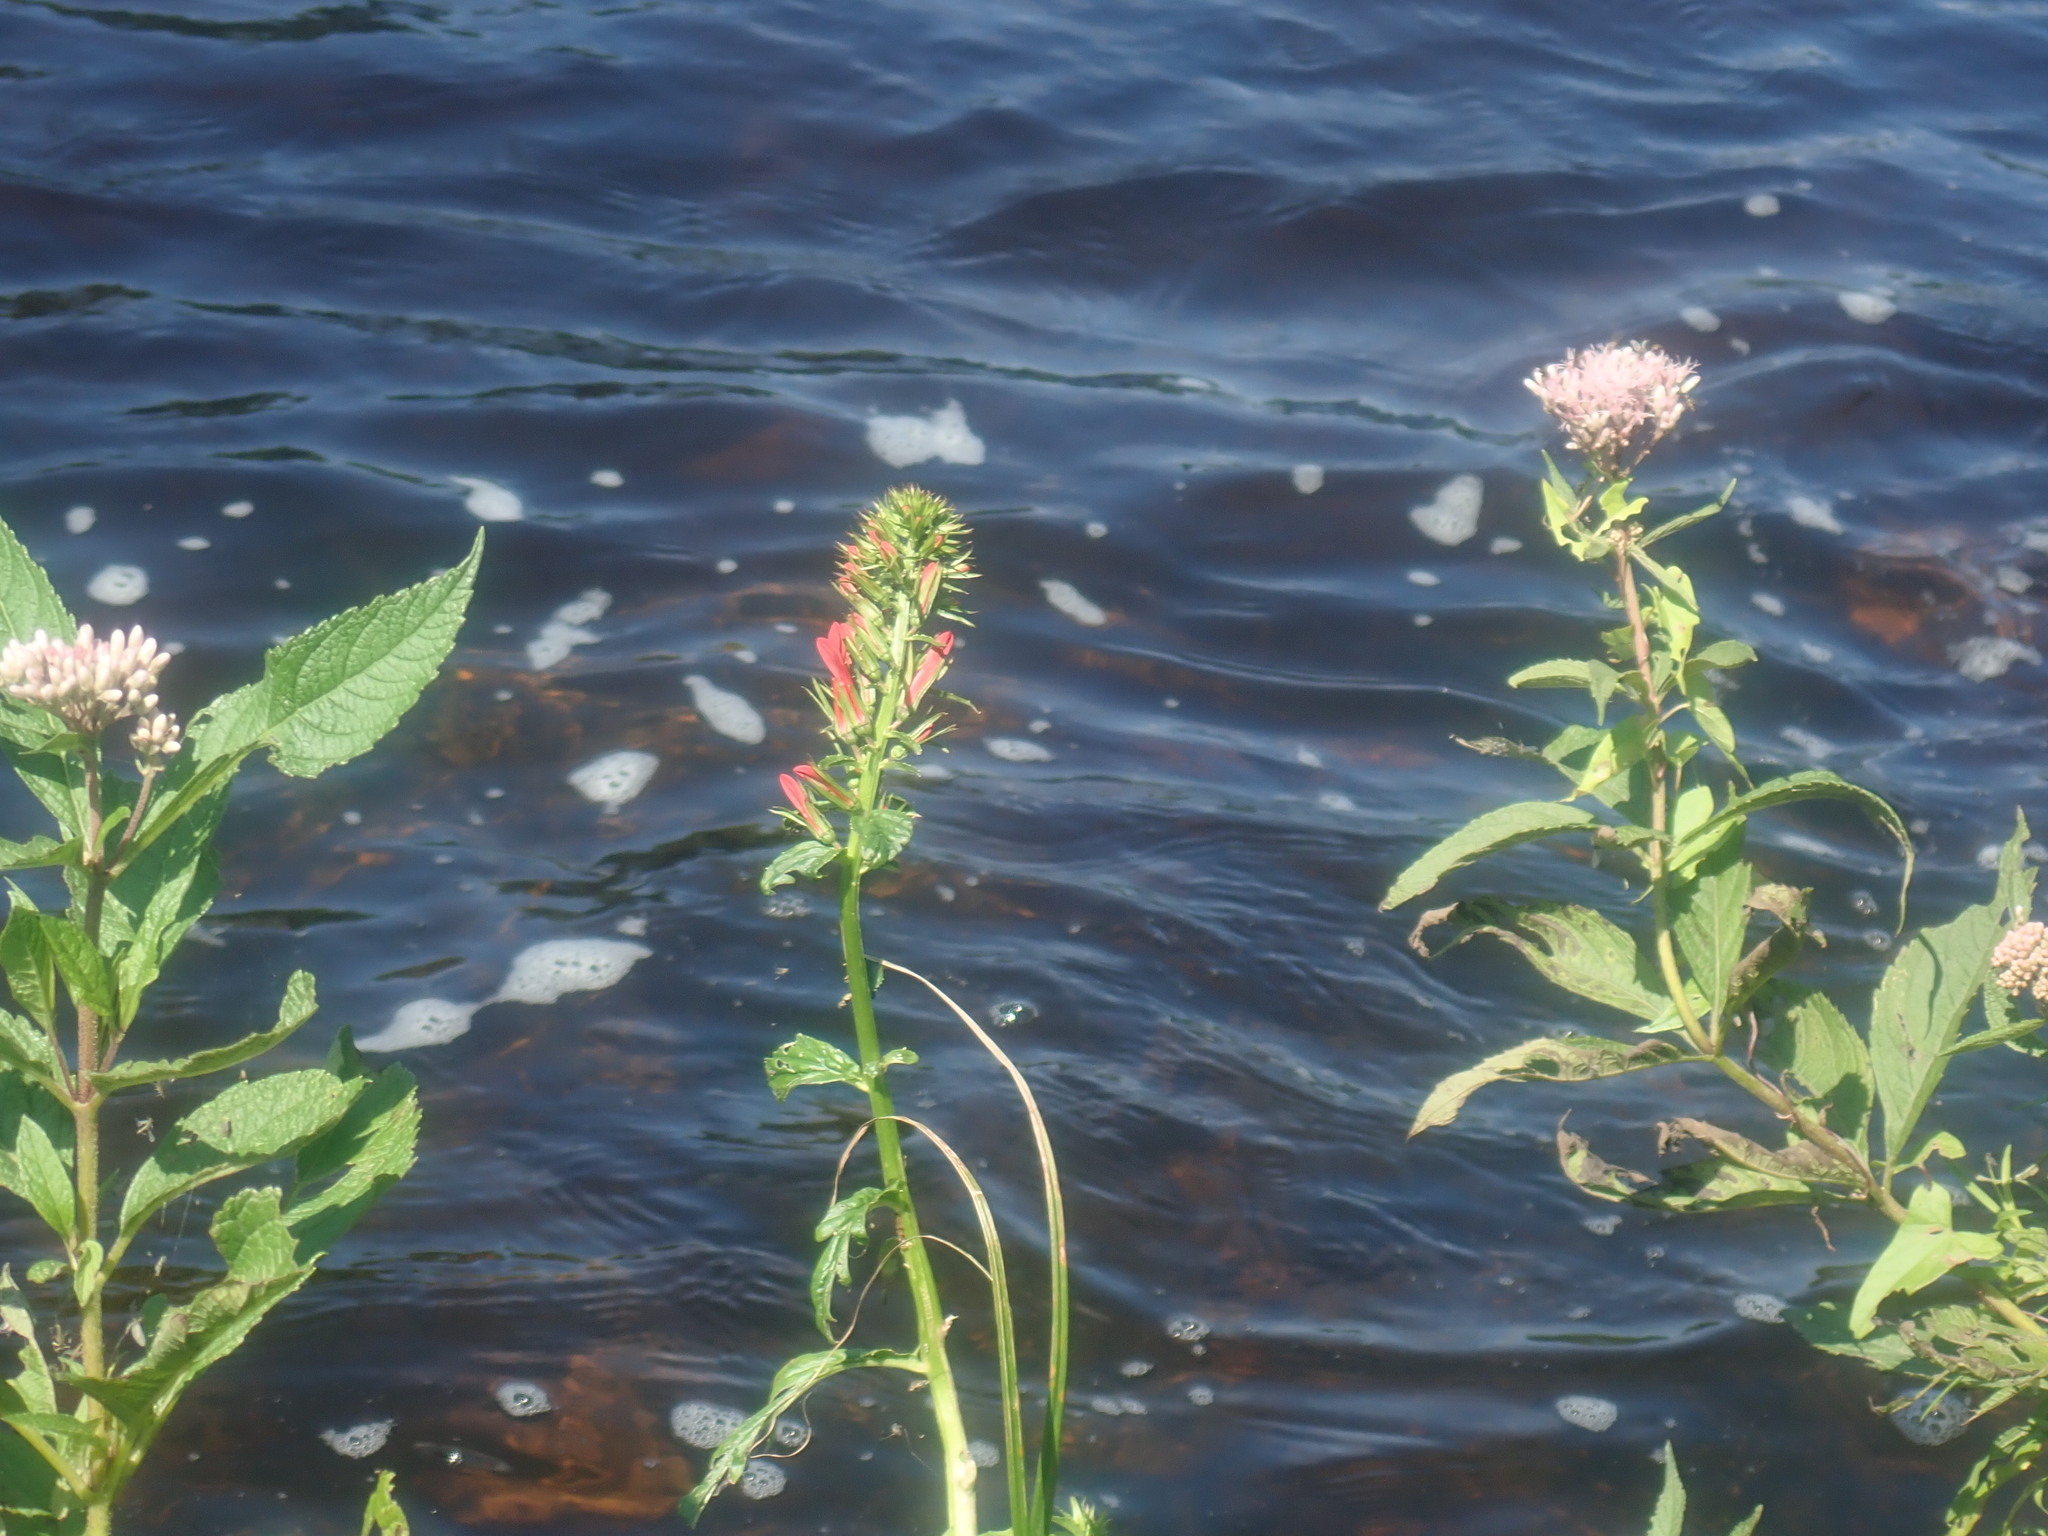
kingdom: Plantae
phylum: Tracheophyta
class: Magnoliopsida
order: Asterales
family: Campanulaceae
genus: Lobelia
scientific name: Lobelia cardinalis
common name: Cardinal flower
